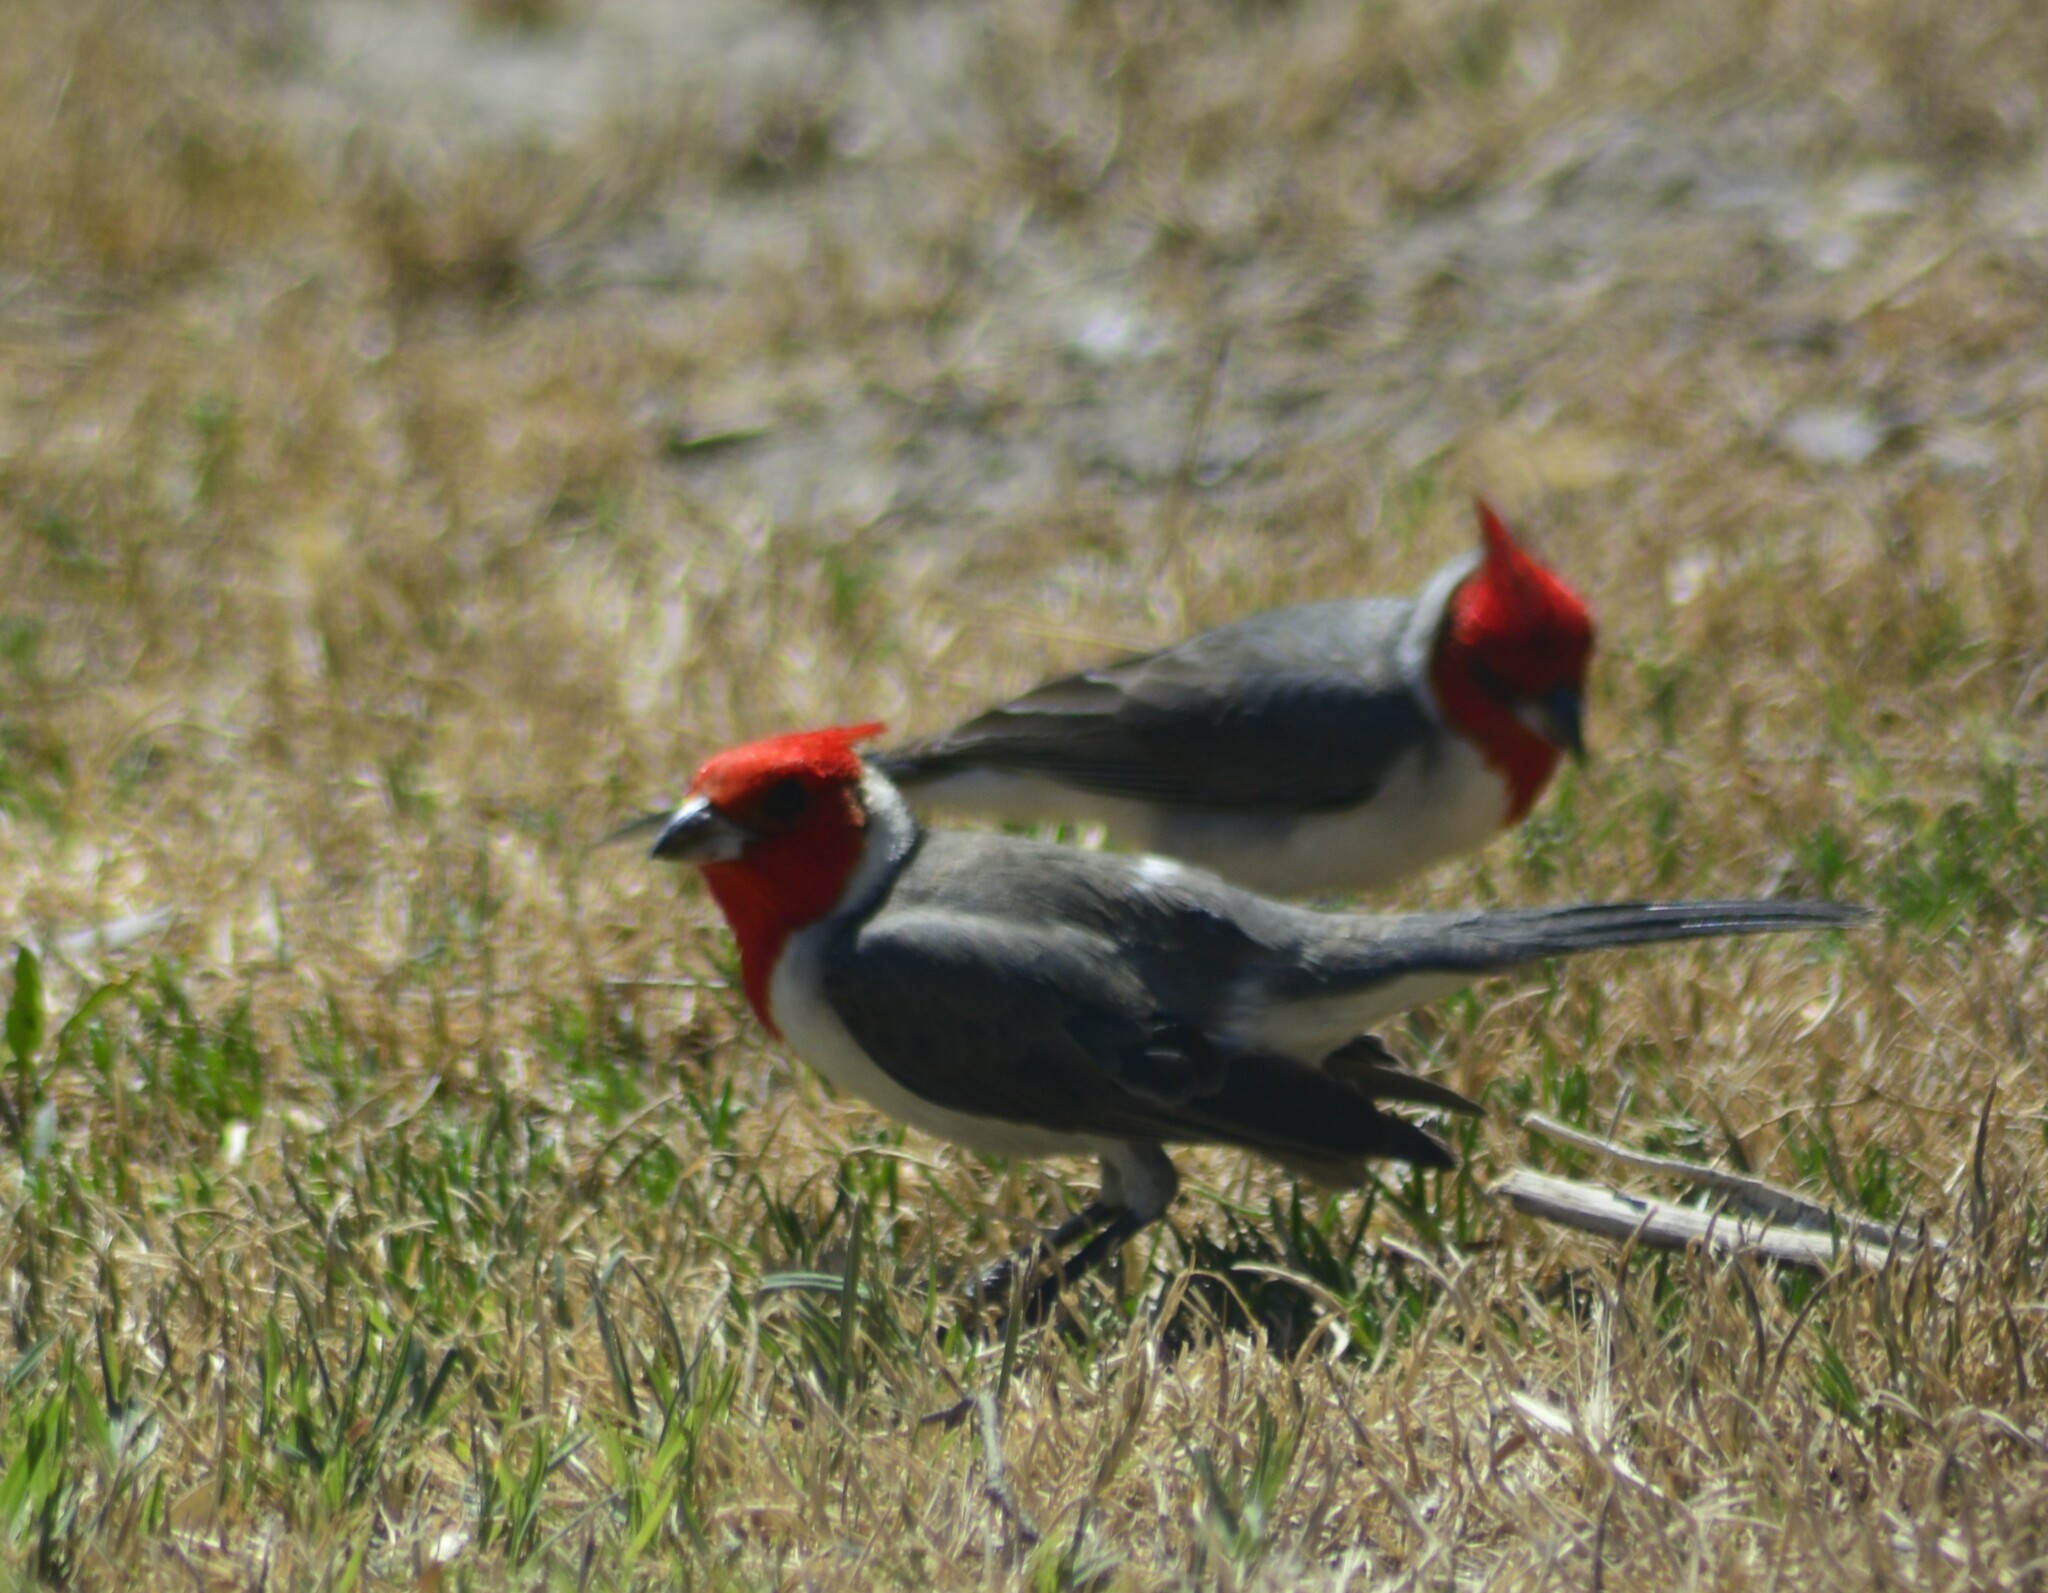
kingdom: Animalia
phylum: Chordata
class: Aves
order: Passeriformes
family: Thraupidae
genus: Paroaria
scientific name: Paroaria coronata
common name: Red-crested cardinal
